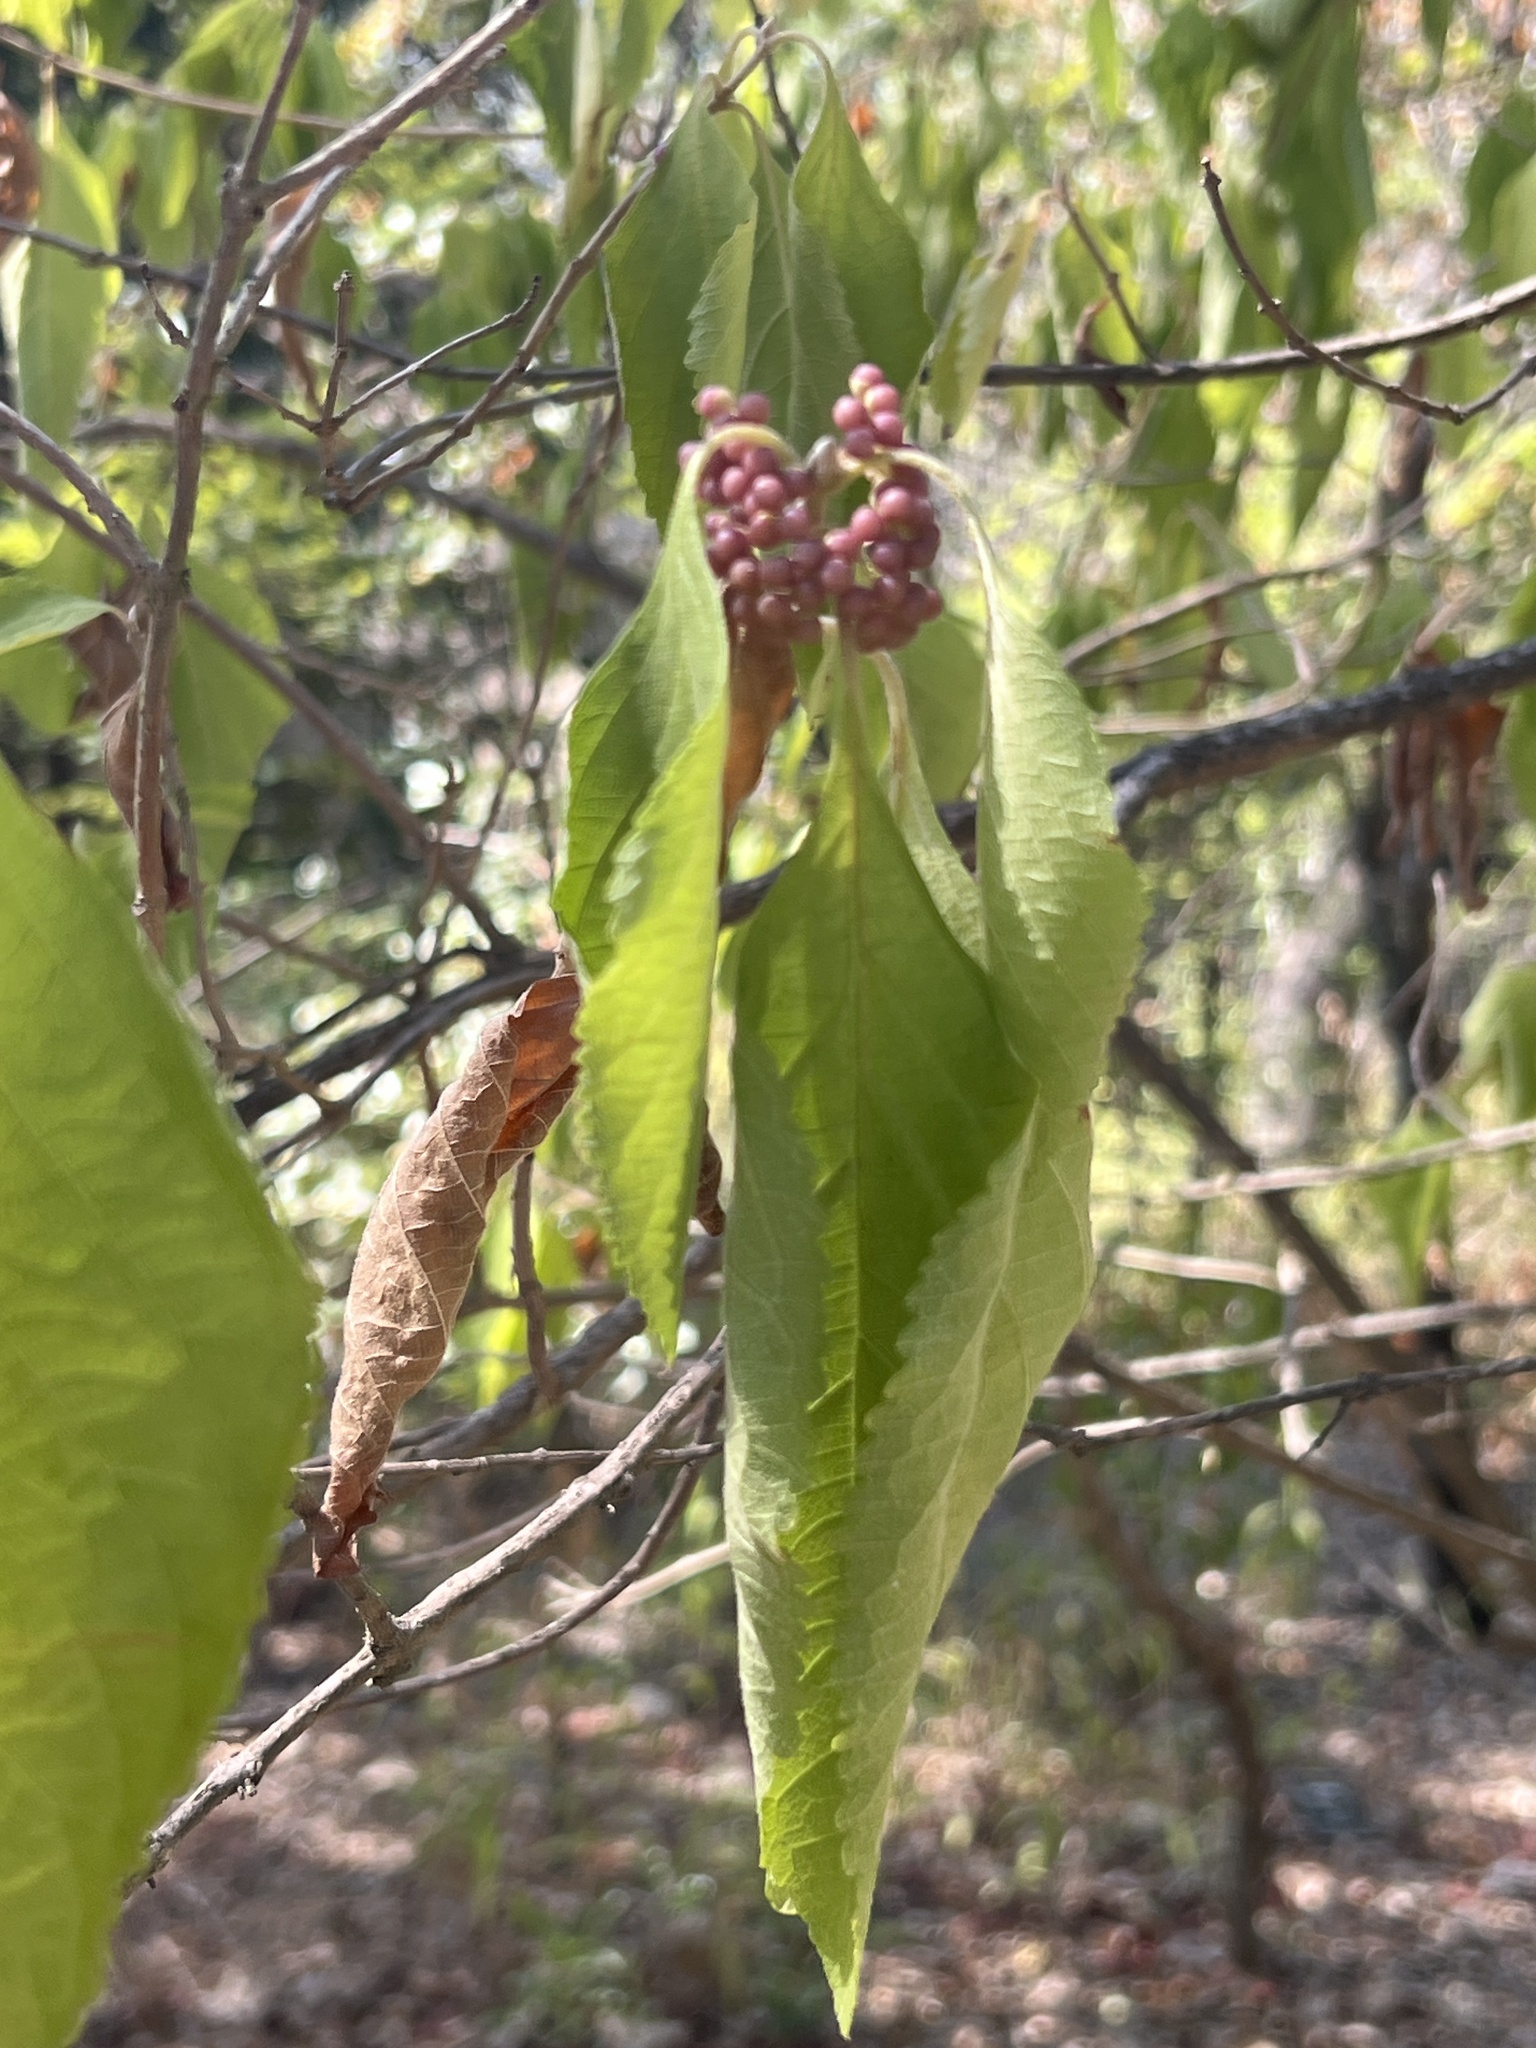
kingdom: Plantae
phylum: Tracheophyta
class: Magnoliopsida
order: Lamiales
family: Lamiaceae
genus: Callicarpa
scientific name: Callicarpa americana
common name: American beautyberry
